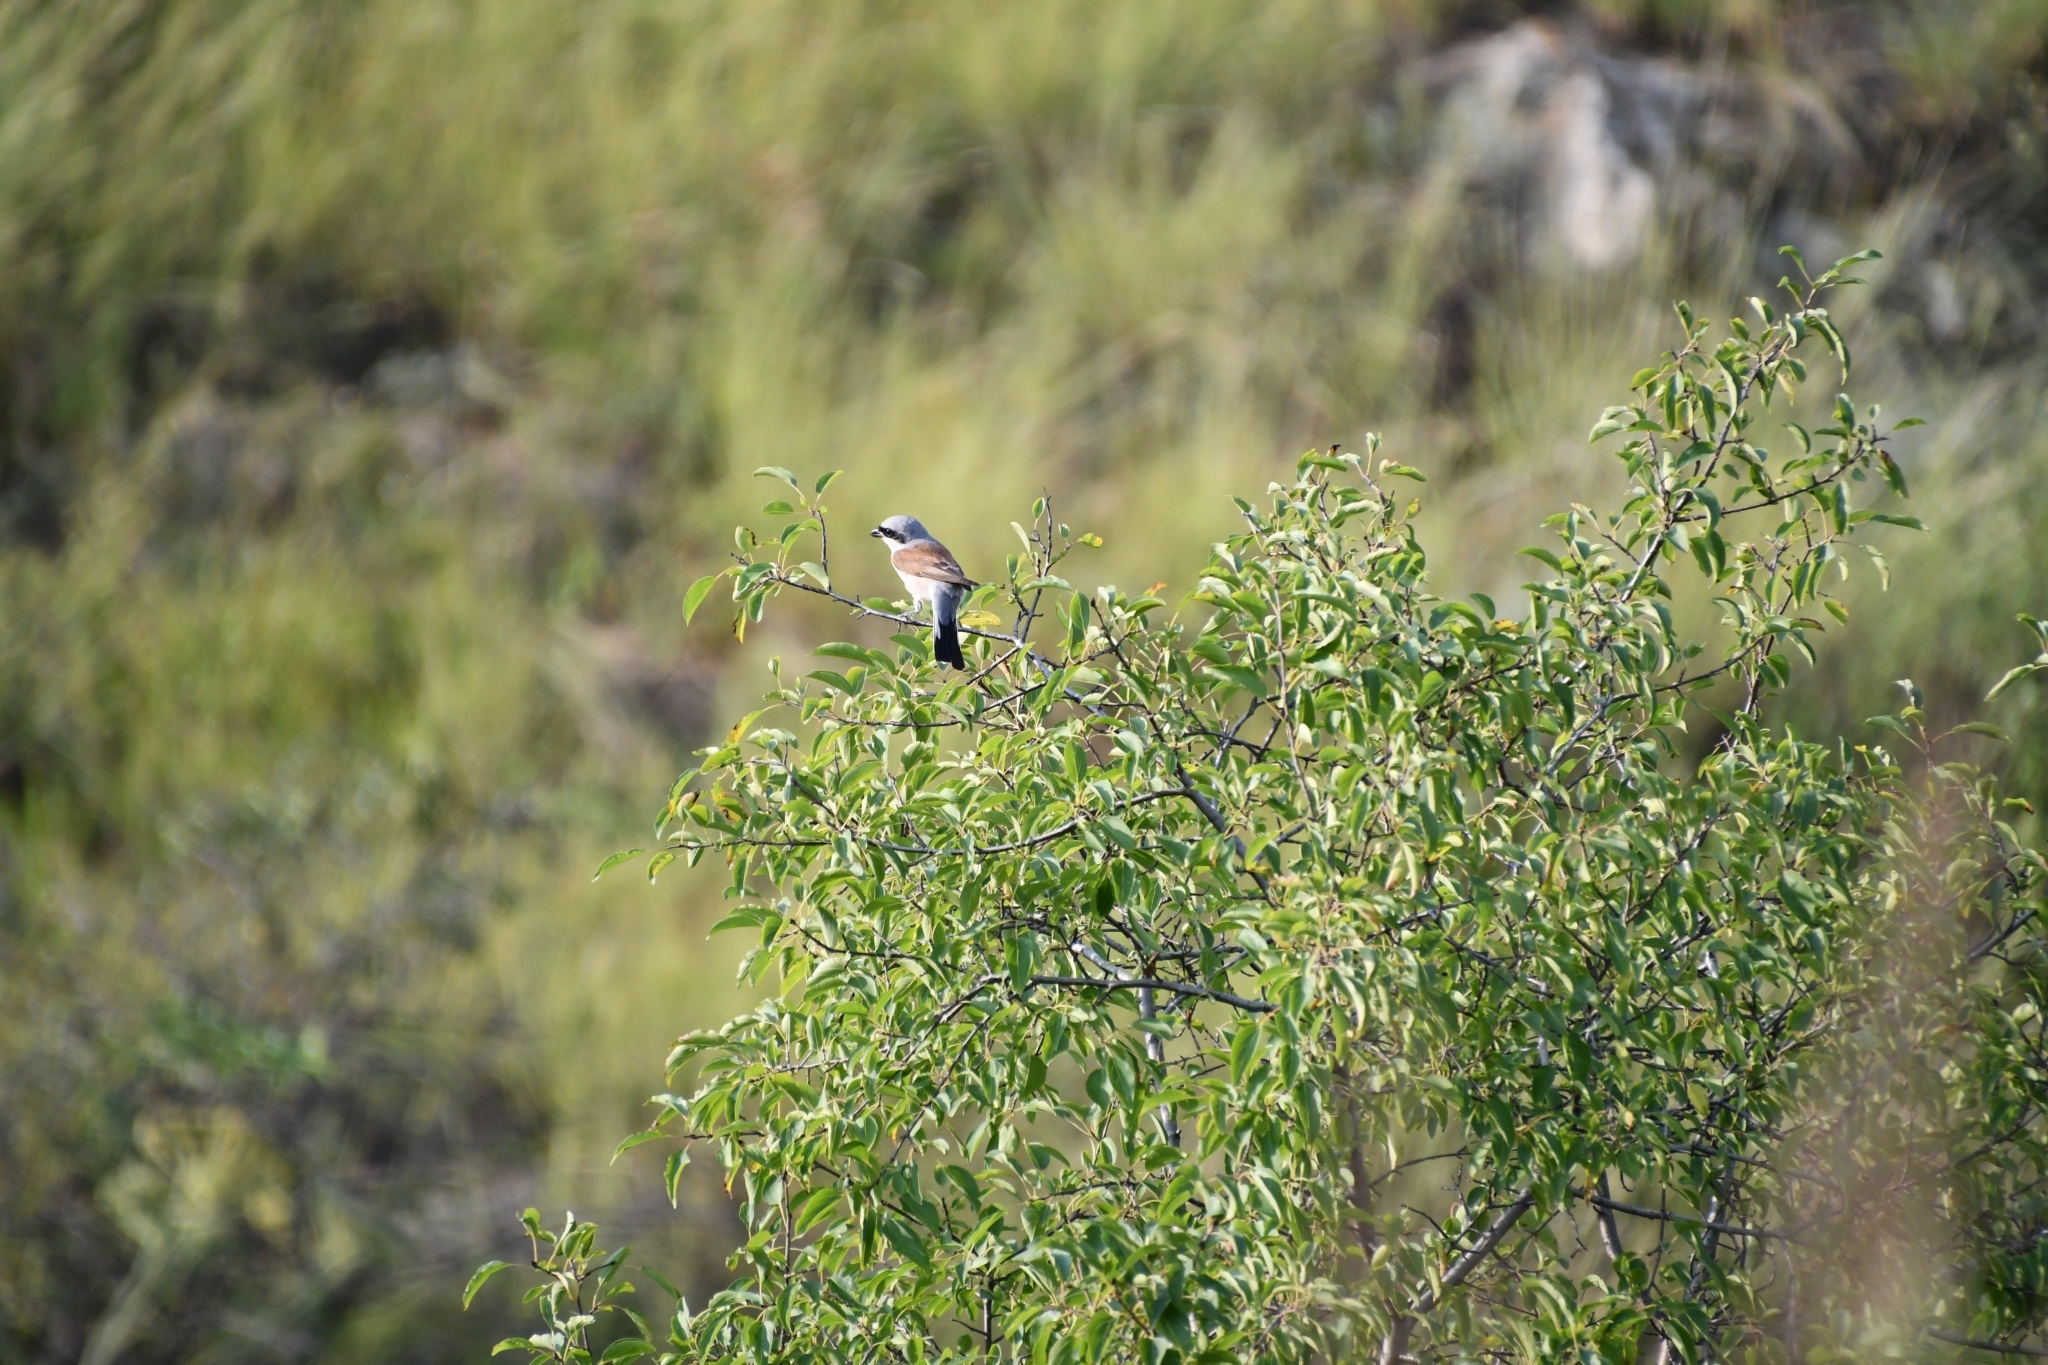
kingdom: Animalia
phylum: Chordata
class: Aves
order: Passeriformes
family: Laniidae
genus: Lanius
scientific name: Lanius collurio
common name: Red-backed shrike
